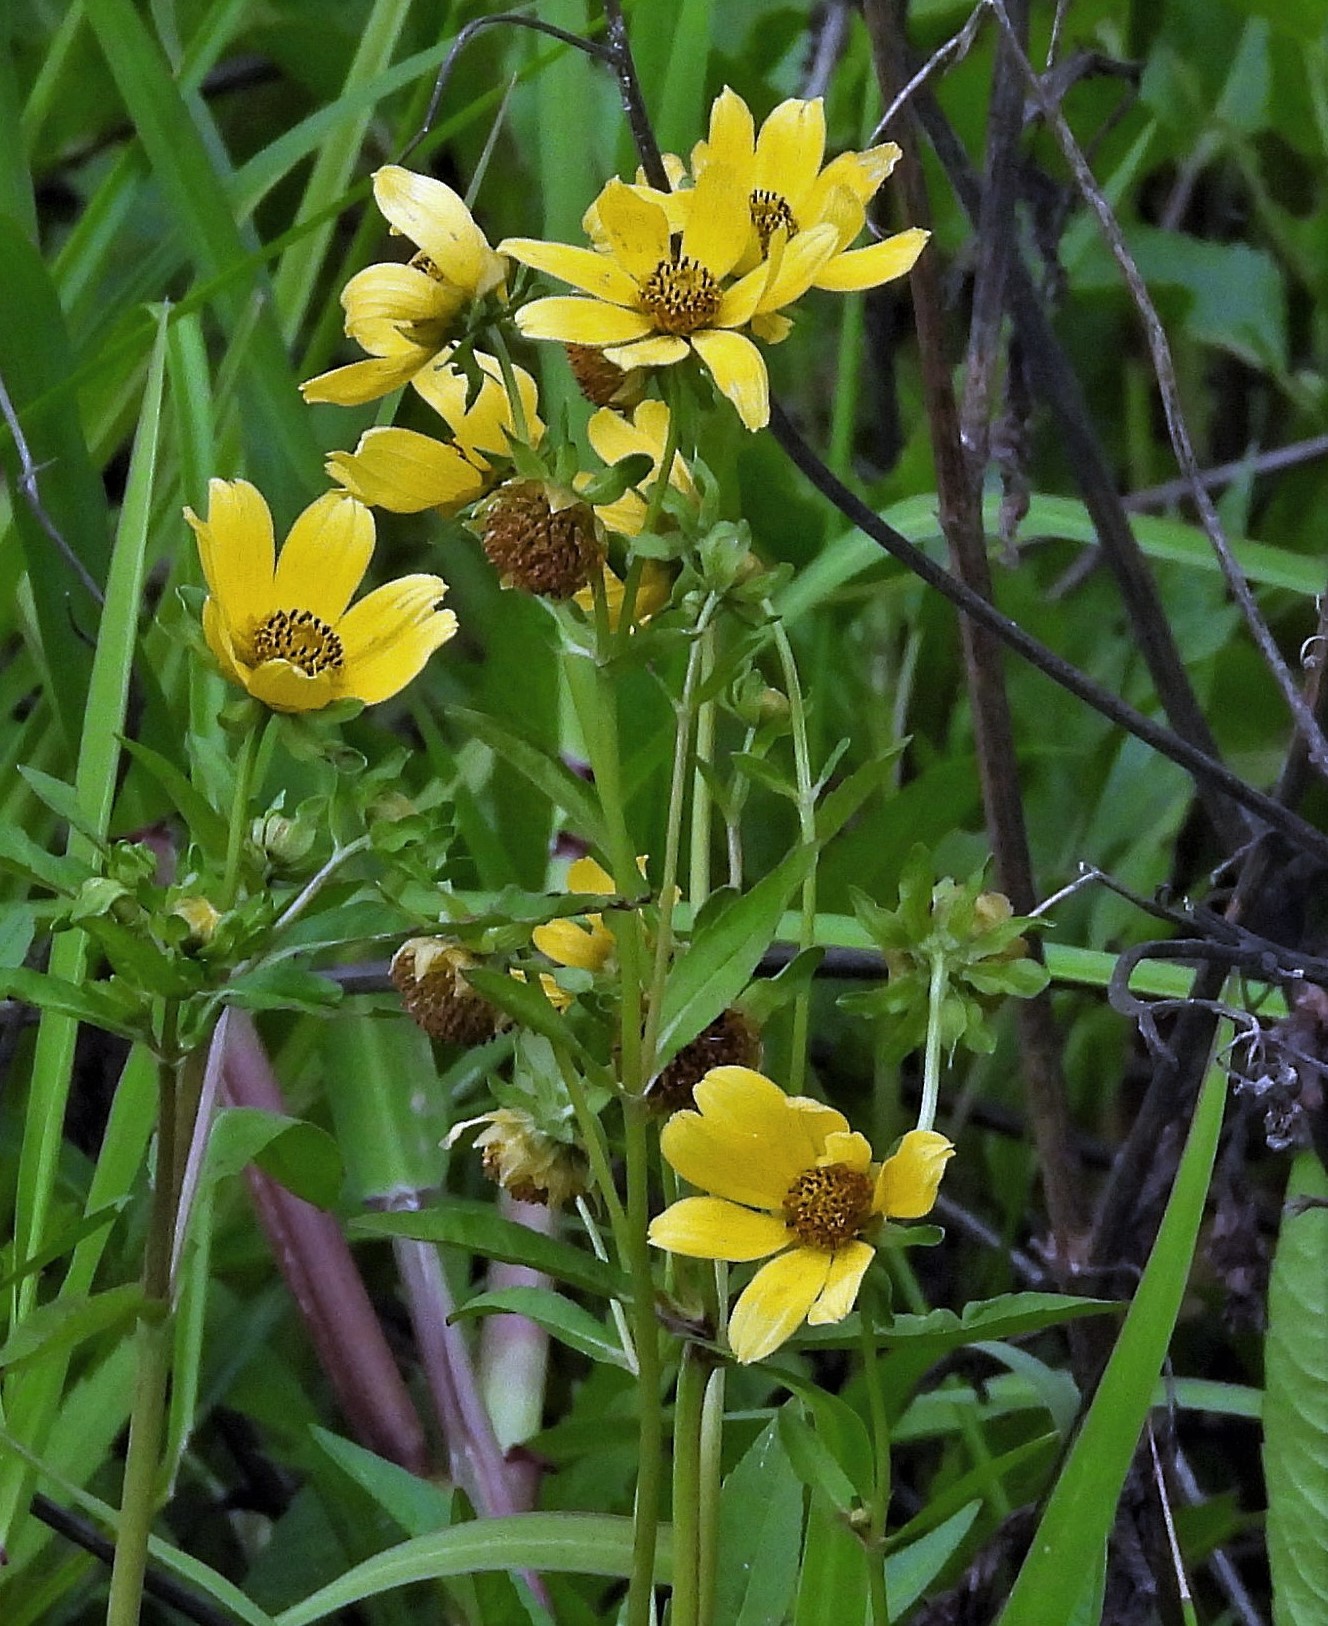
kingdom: Plantae
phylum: Tracheophyta
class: Magnoliopsida
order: Asterales
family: Asteraceae
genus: Bidens
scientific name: Bidens laevis
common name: Larger bur-marigold
